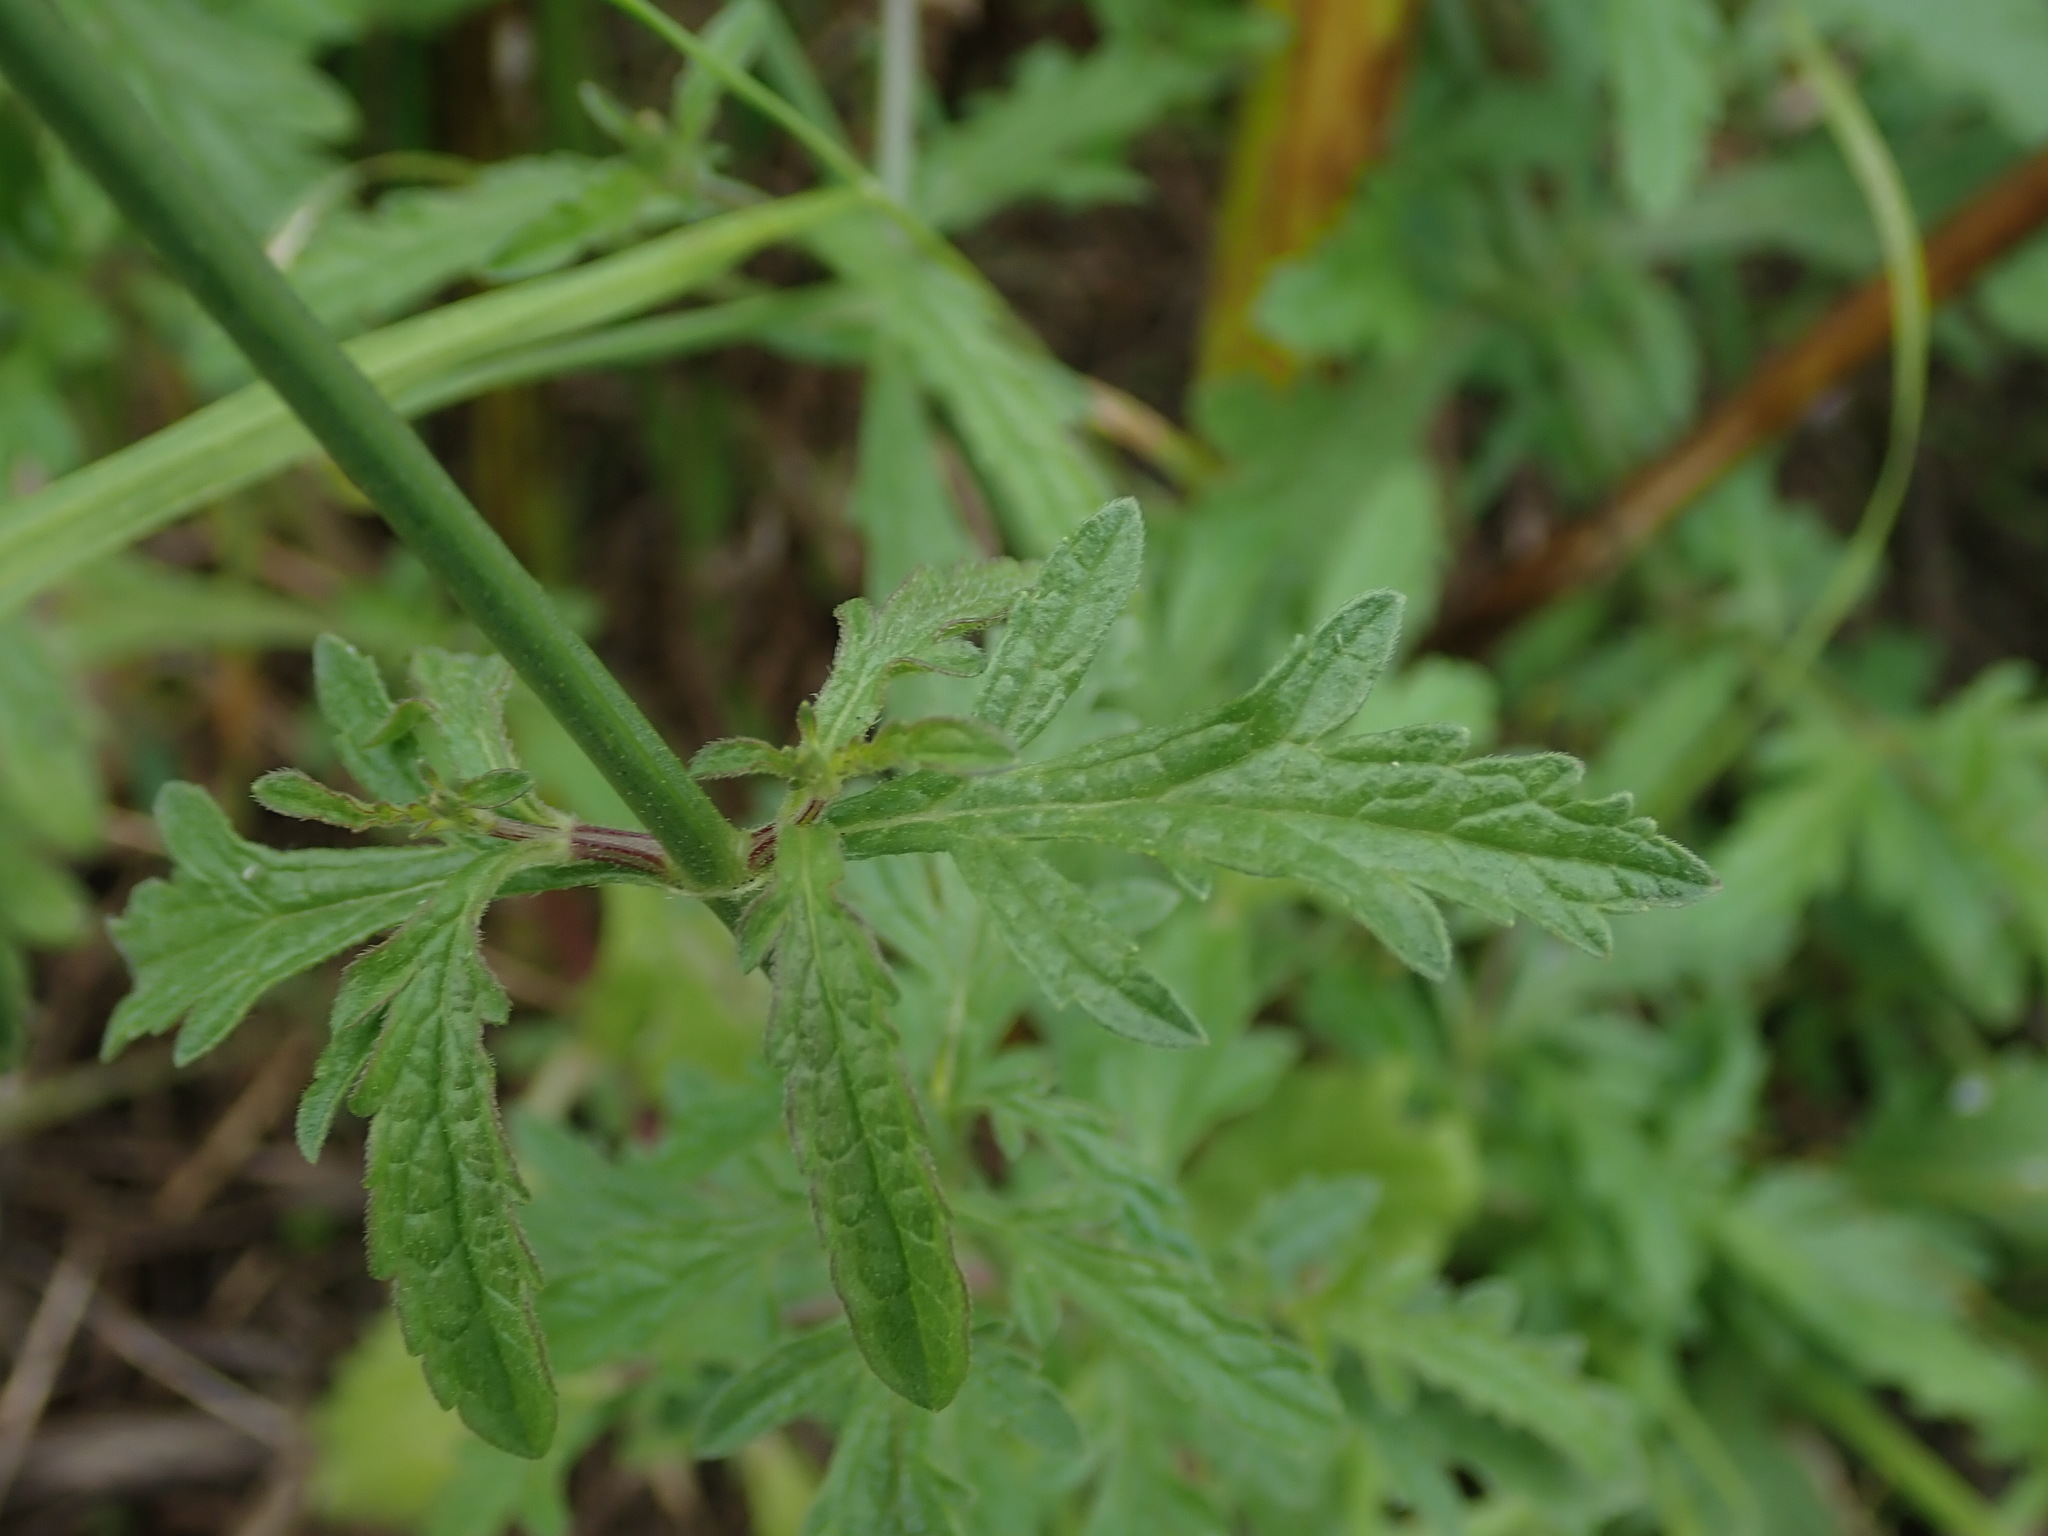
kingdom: Plantae
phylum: Tracheophyta
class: Magnoliopsida
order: Lamiales
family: Verbenaceae
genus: Verbena
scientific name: Verbena officinalis
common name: Vervain
